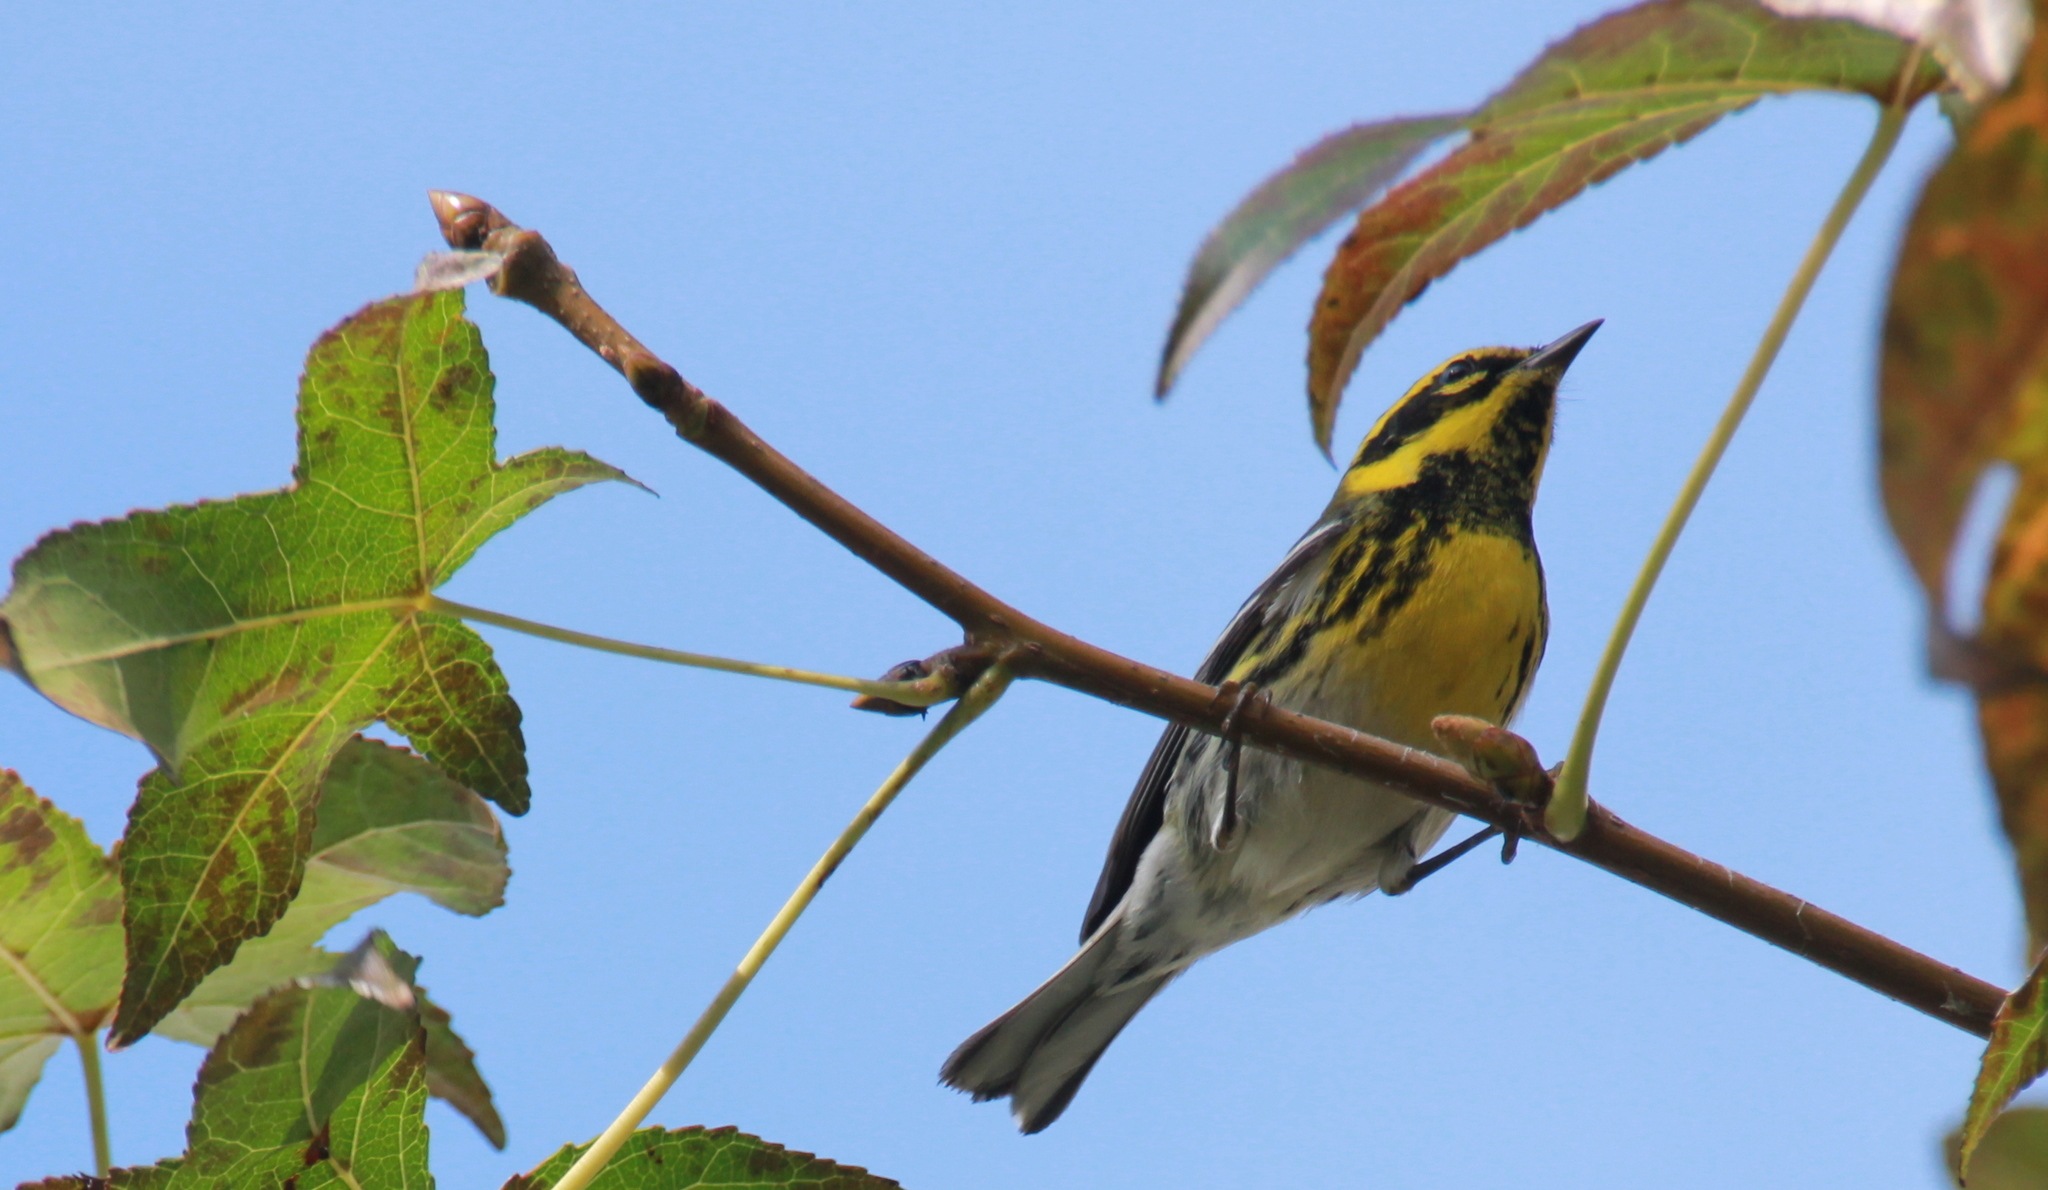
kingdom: Animalia
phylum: Chordata
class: Aves
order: Passeriformes
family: Parulidae
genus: Setophaga
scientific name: Setophaga townsendi
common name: Townsend's warbler
